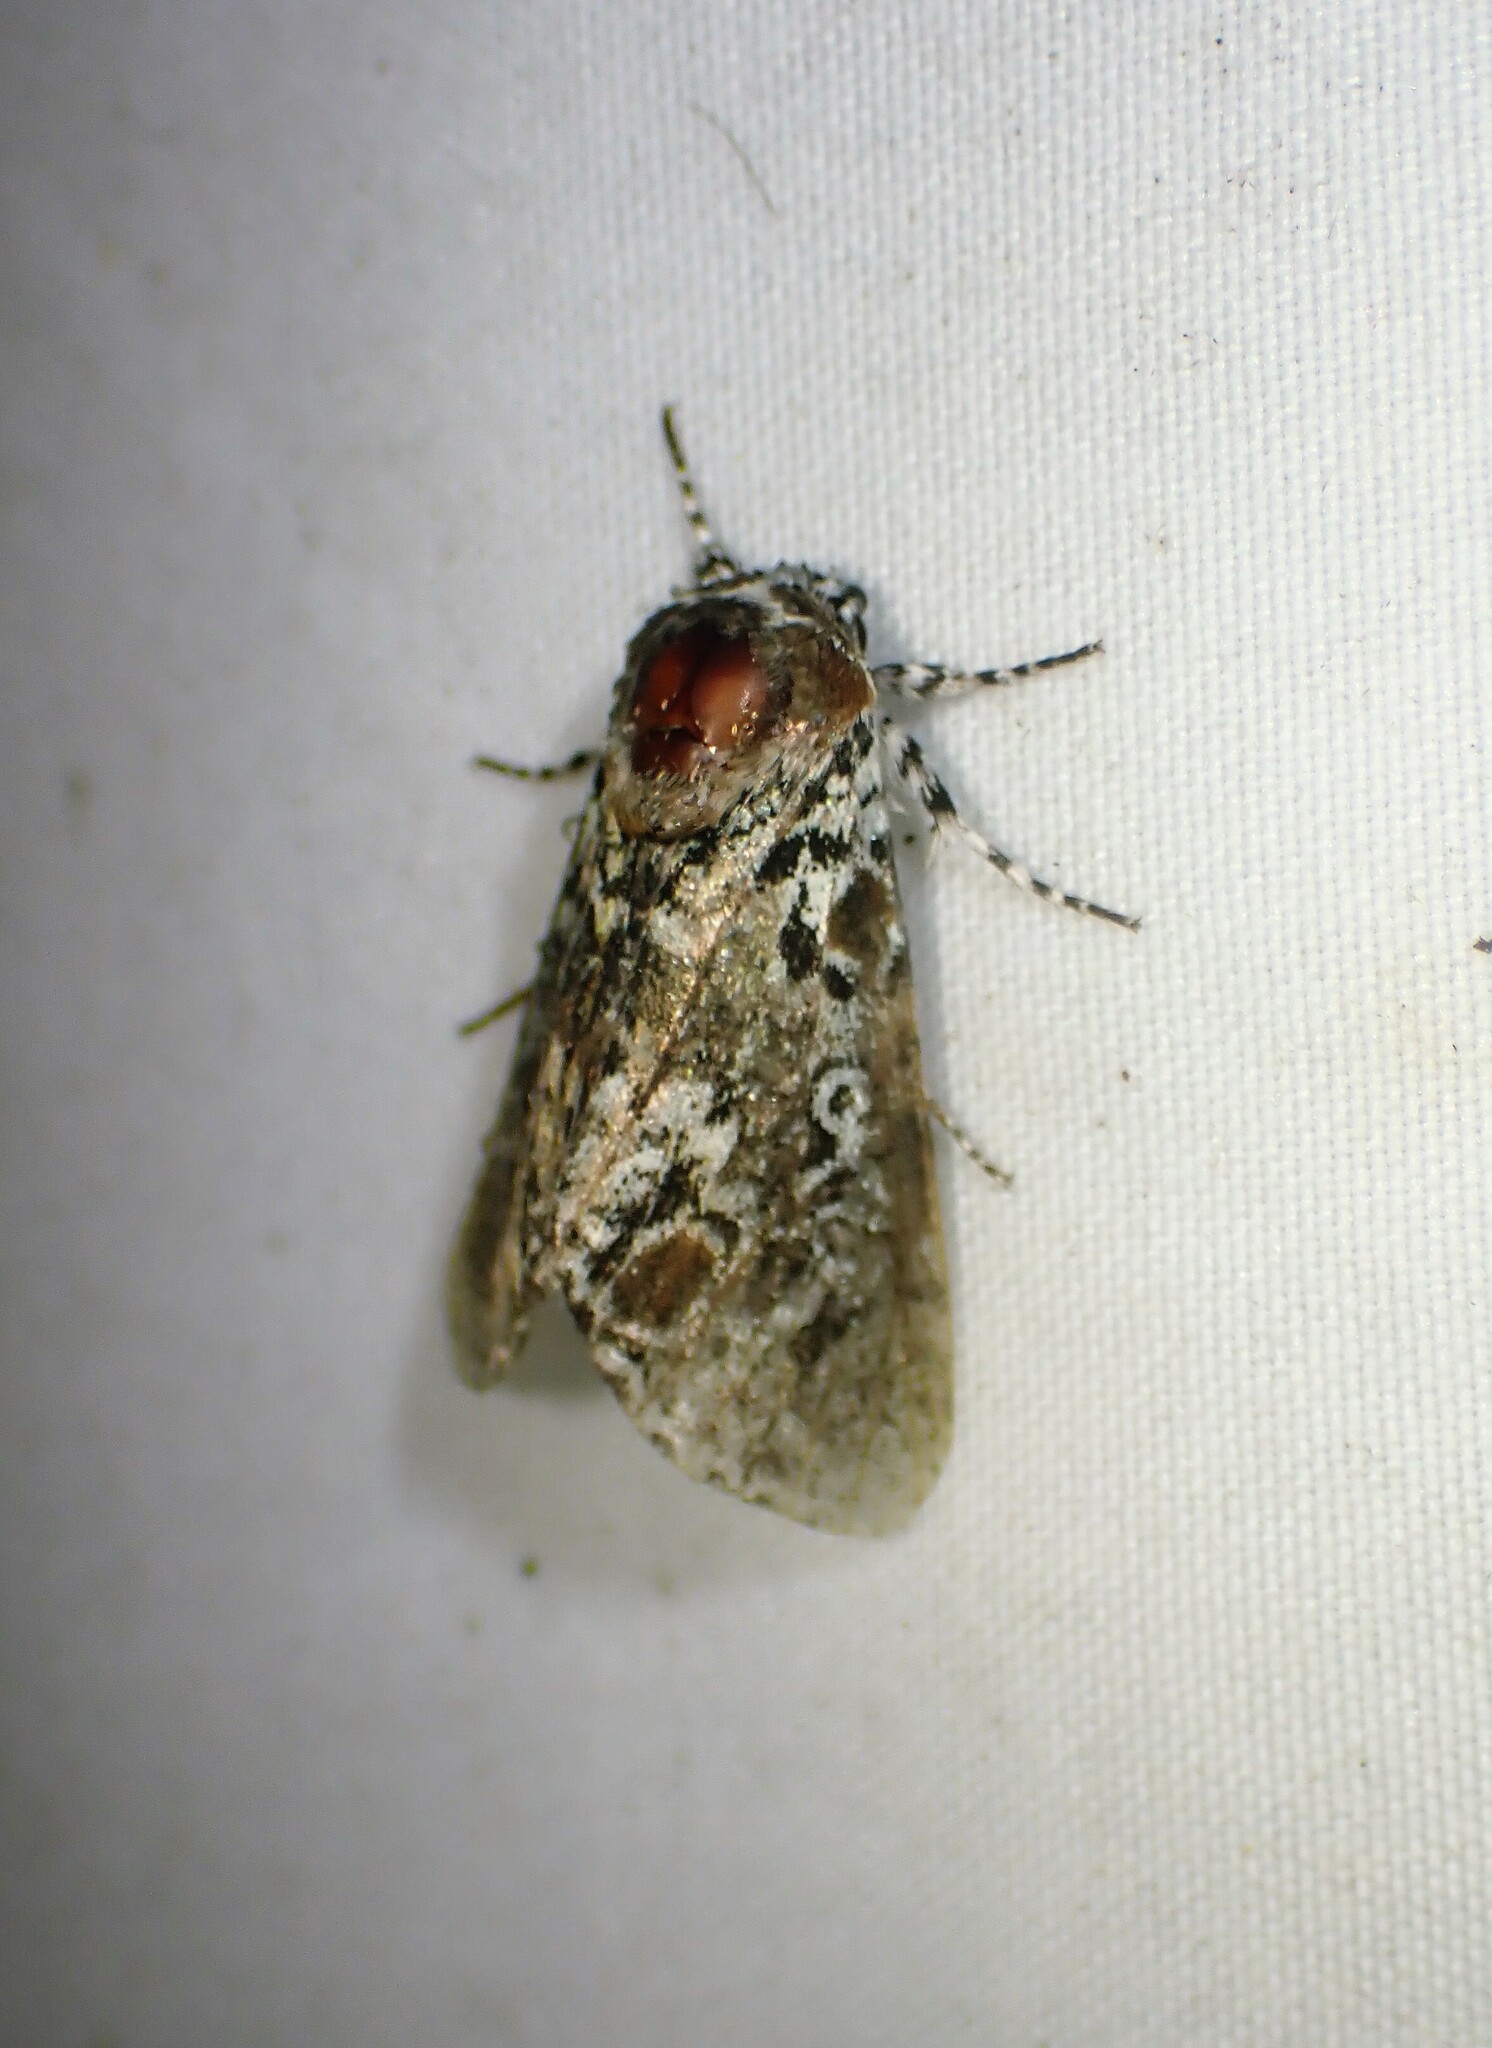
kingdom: Animalia
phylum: Arthropoda
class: Insecta
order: Lepidoptera
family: Noctuidae
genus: Harrisimemna
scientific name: Harrisimemna trisignata
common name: Harris threespot
